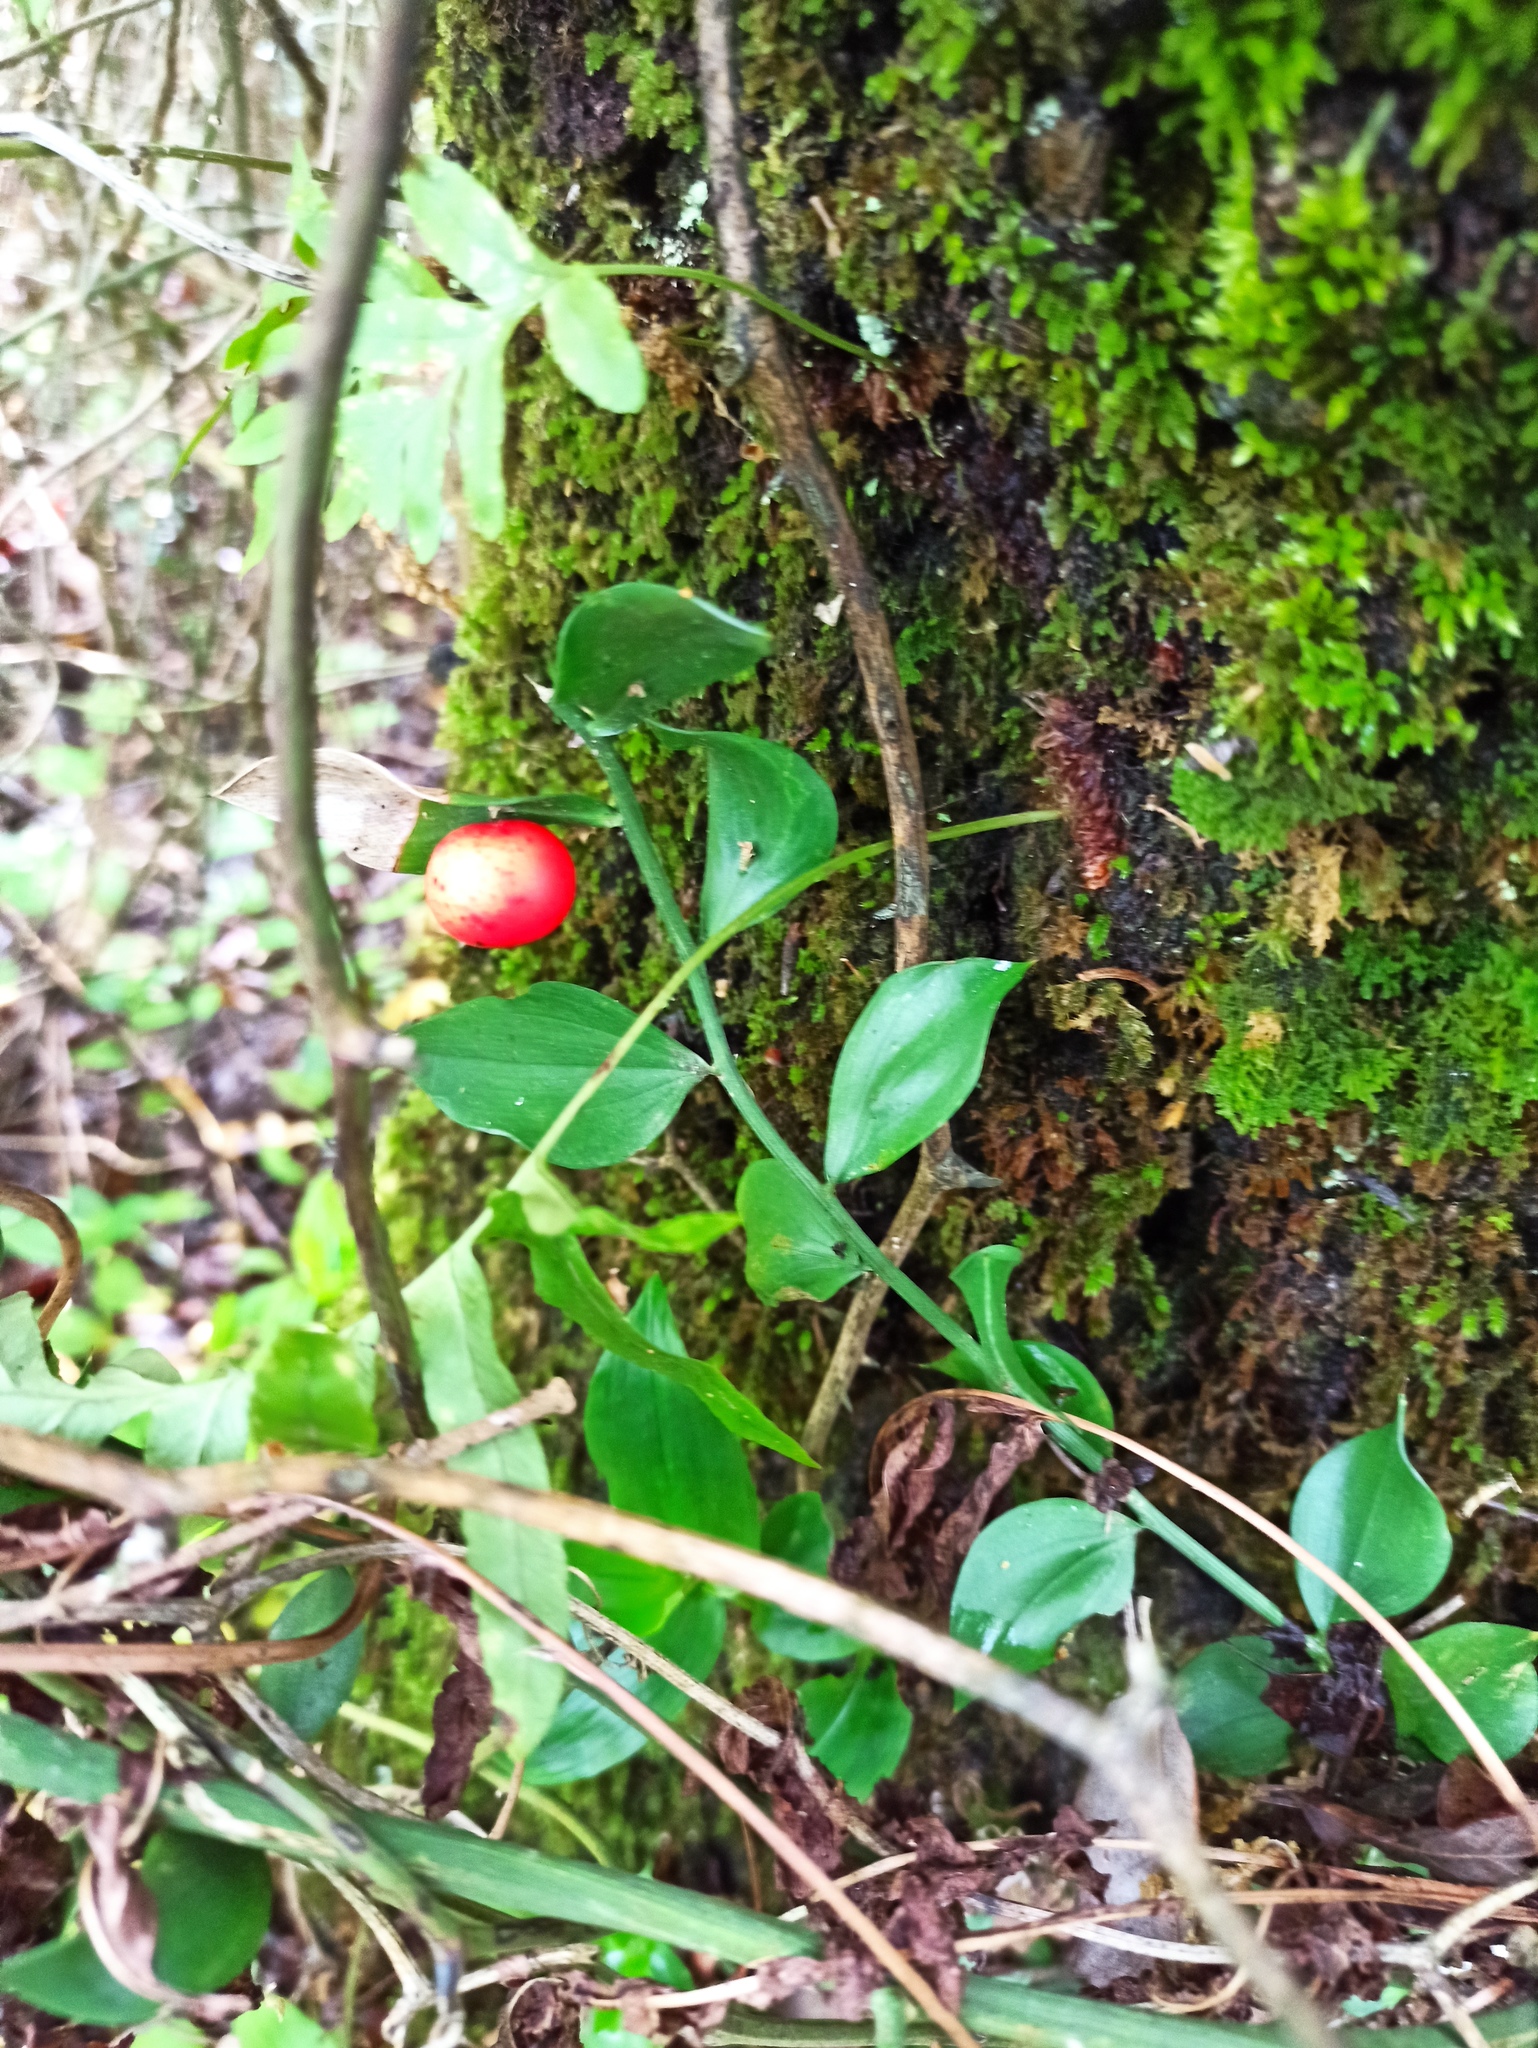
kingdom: Plantae
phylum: Tracheophyta
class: Liliopsida
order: Asparagales
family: Asparagaceae
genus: Ruscus
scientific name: Ruscus aculeatus
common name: Butcher's-broom
